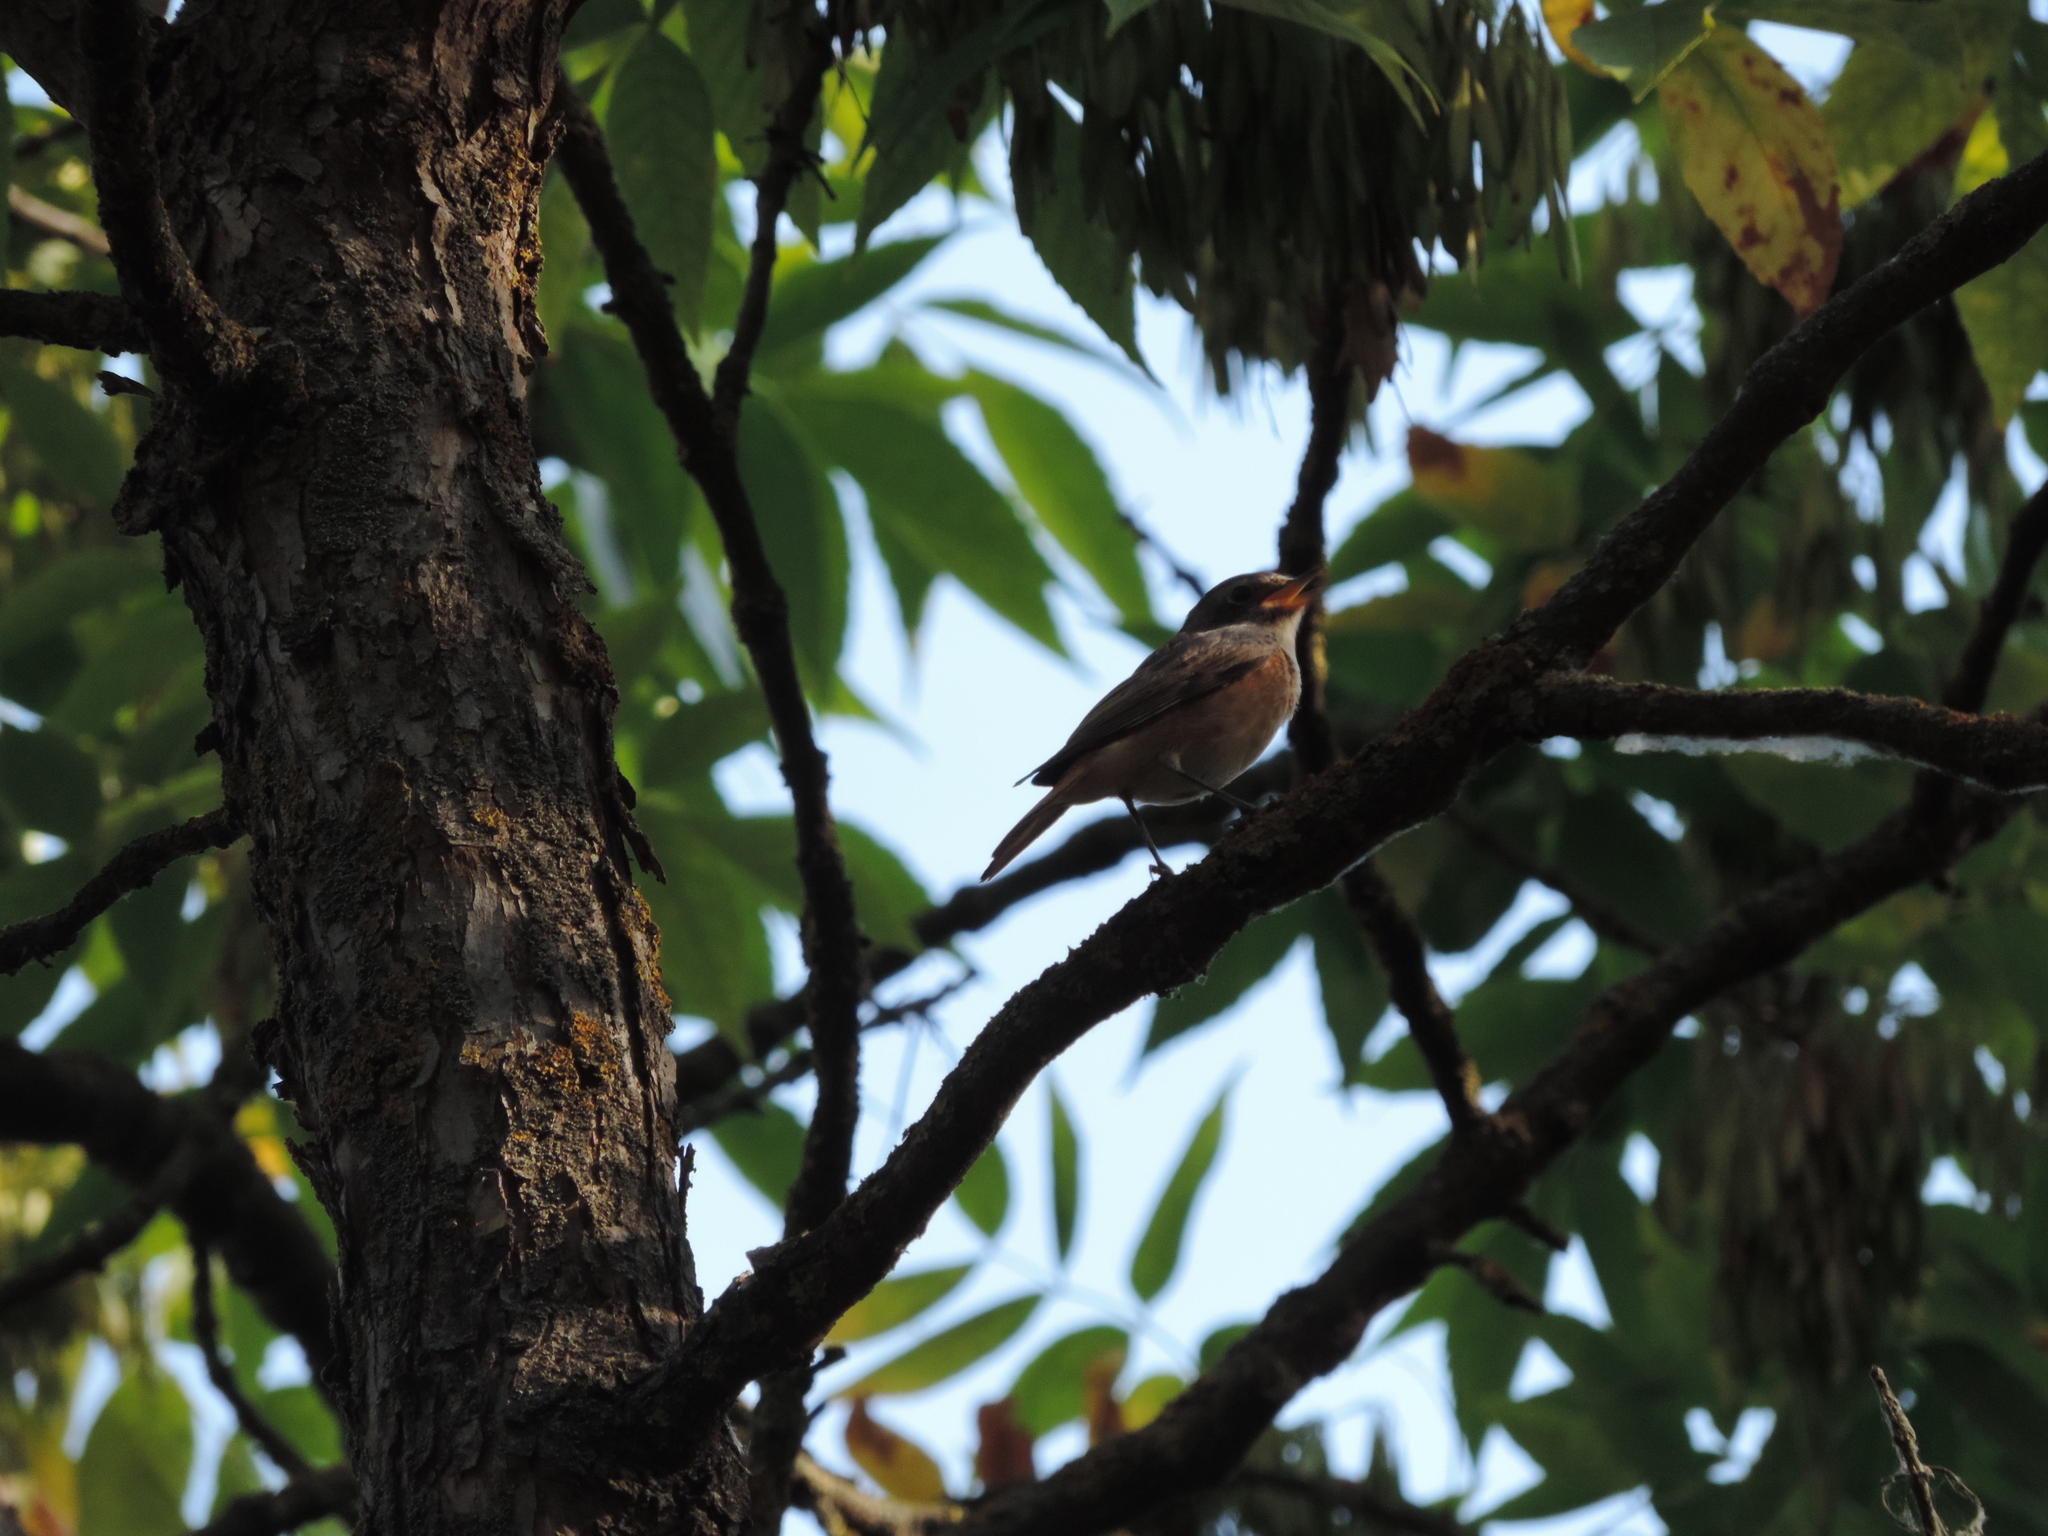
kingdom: Animalia
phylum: Chordata
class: Aves
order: Passeriformes
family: Muscicapidae
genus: Phoenicurus
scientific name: Phoenicurus phoenicurus
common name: Common redstart
